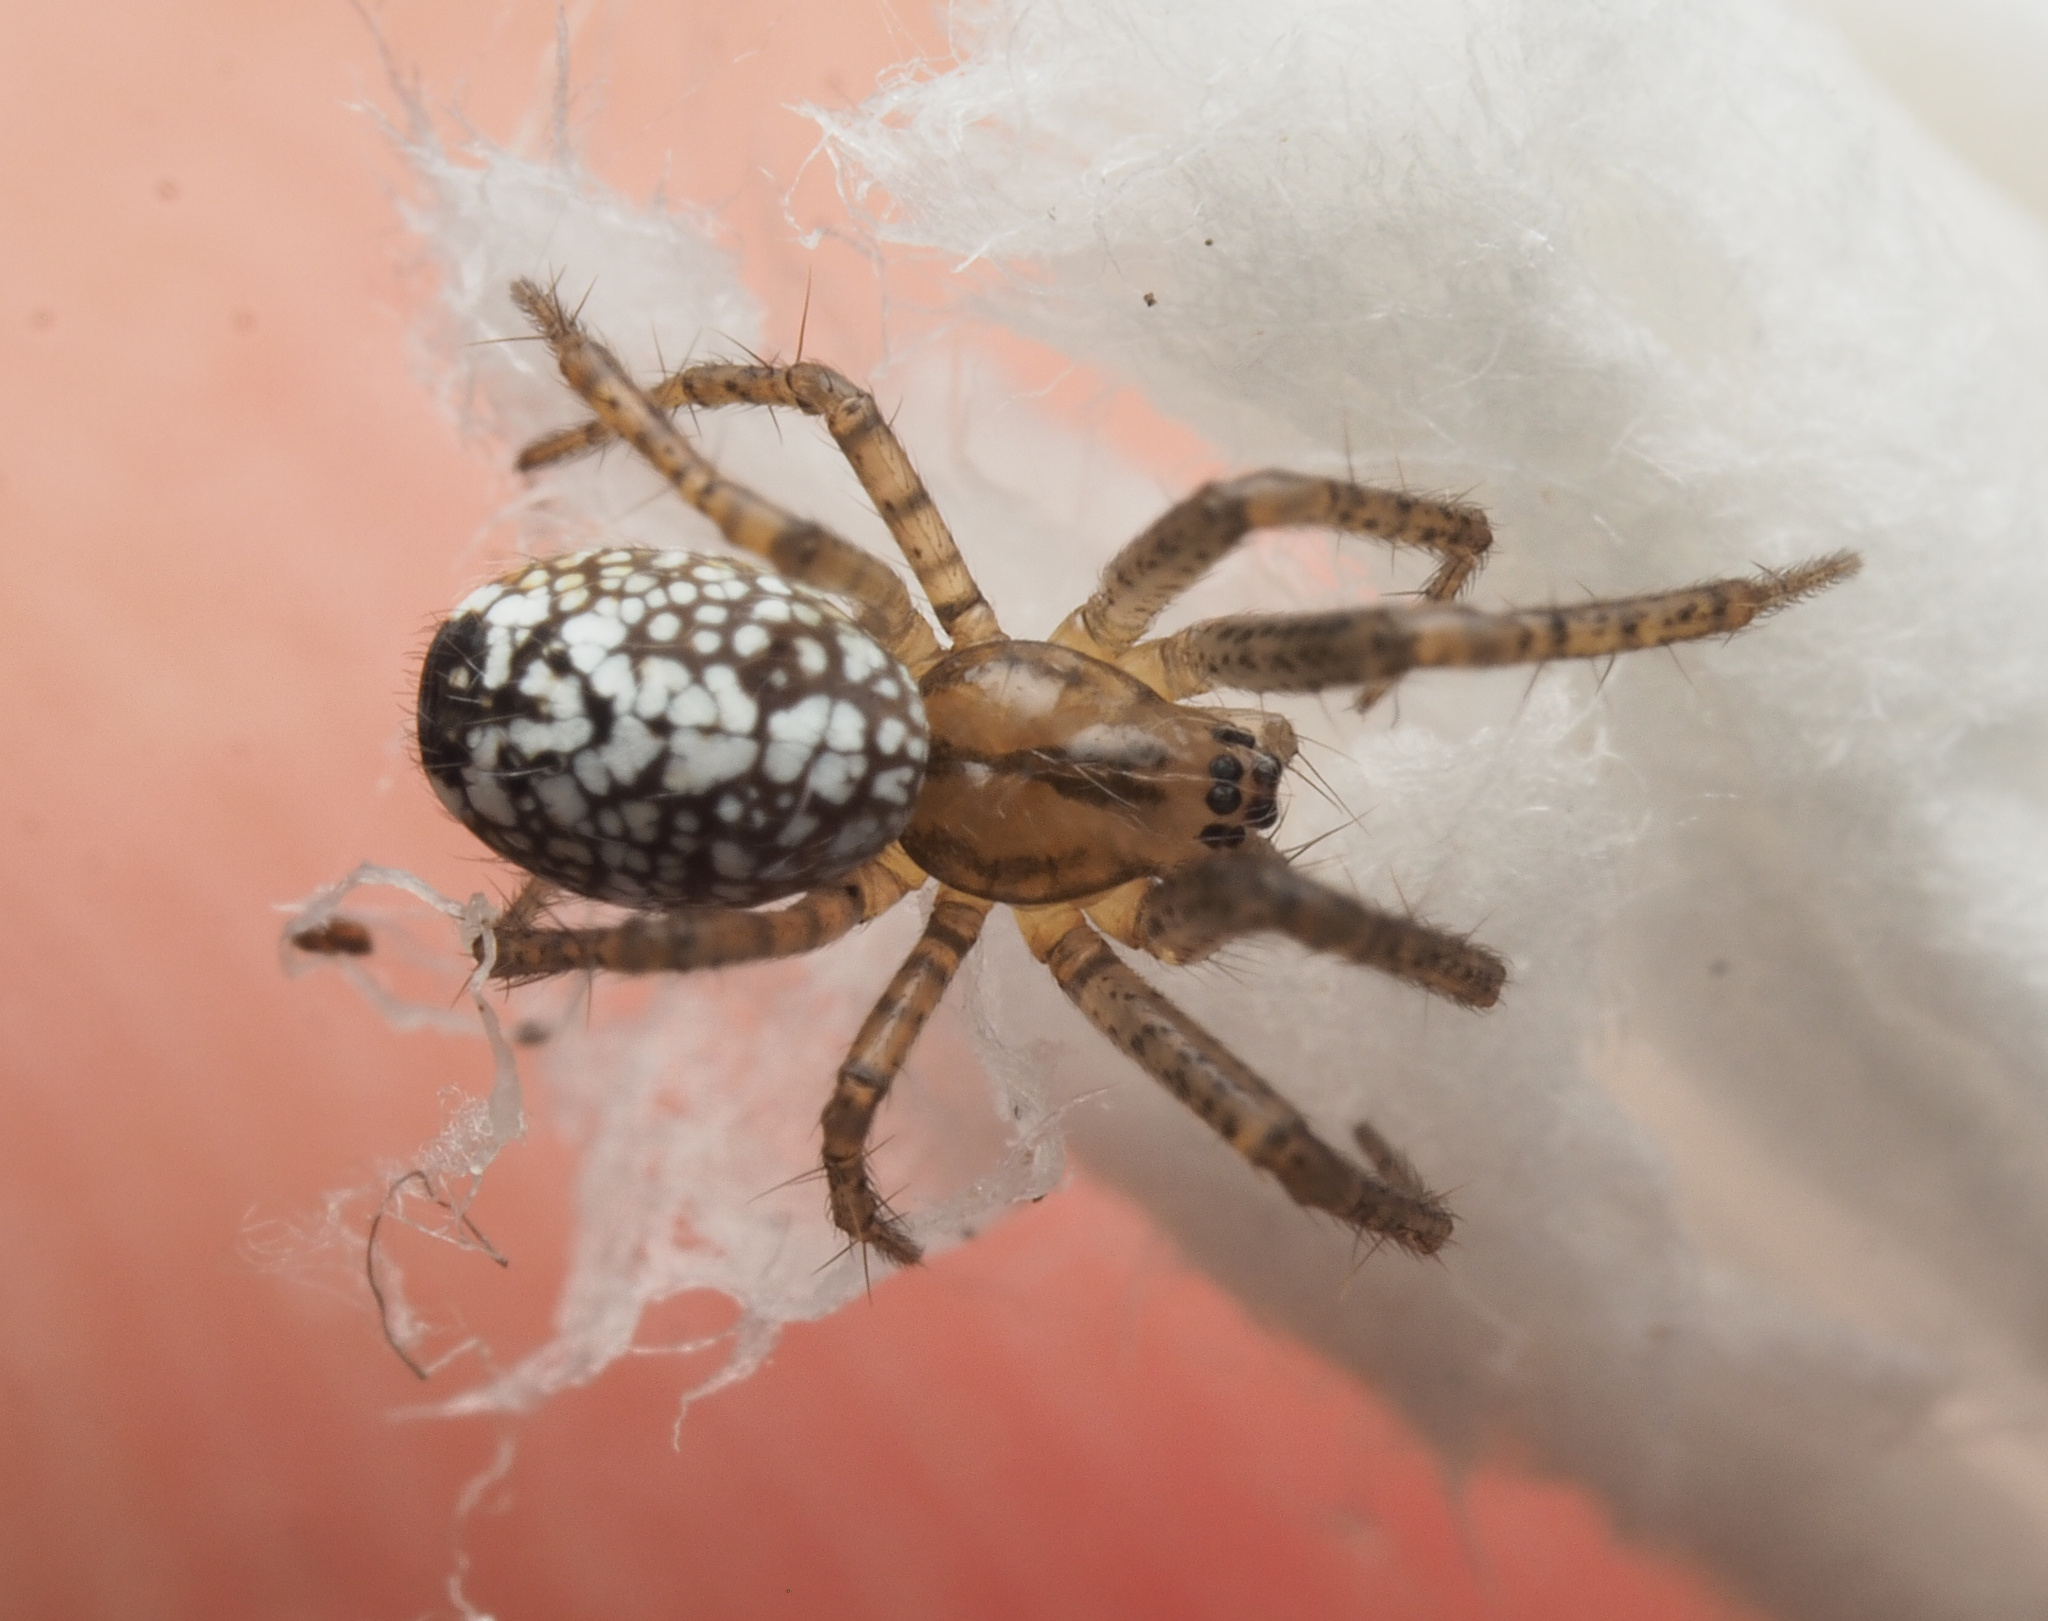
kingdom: Animalia
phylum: Arthropoda
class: Arachnida
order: Araneae
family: Araneidae
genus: Cyrtobill
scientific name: Cyrtobill darwini
